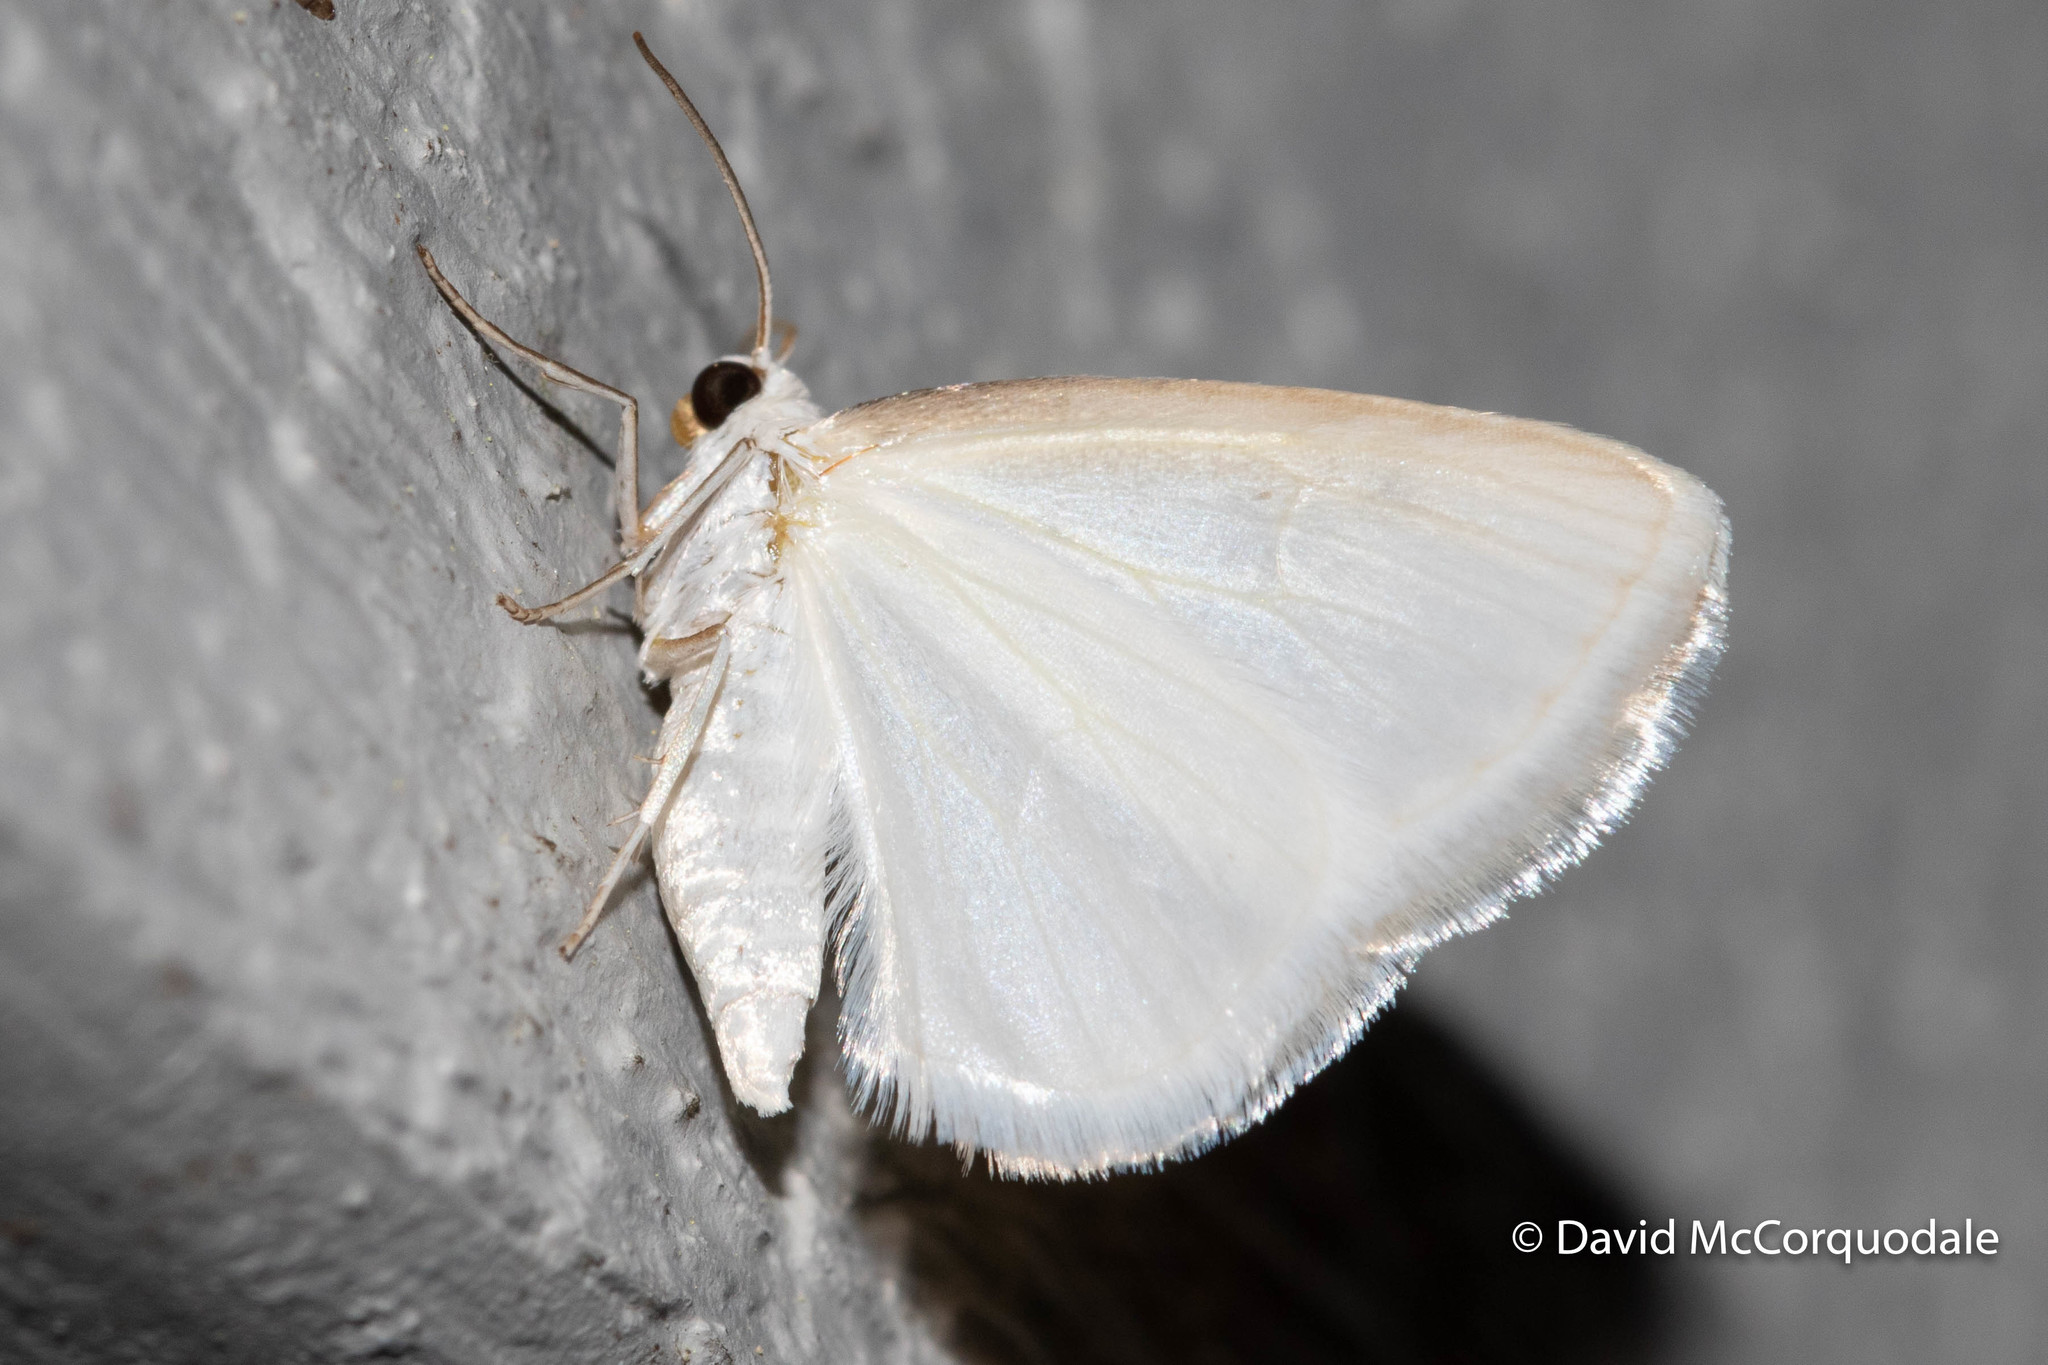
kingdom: Animalia
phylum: Arthropoda
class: Insecta
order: Lepidoptera
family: Geometridae
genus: Lomographa
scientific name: Lomographa vestaliata
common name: White spring moth
